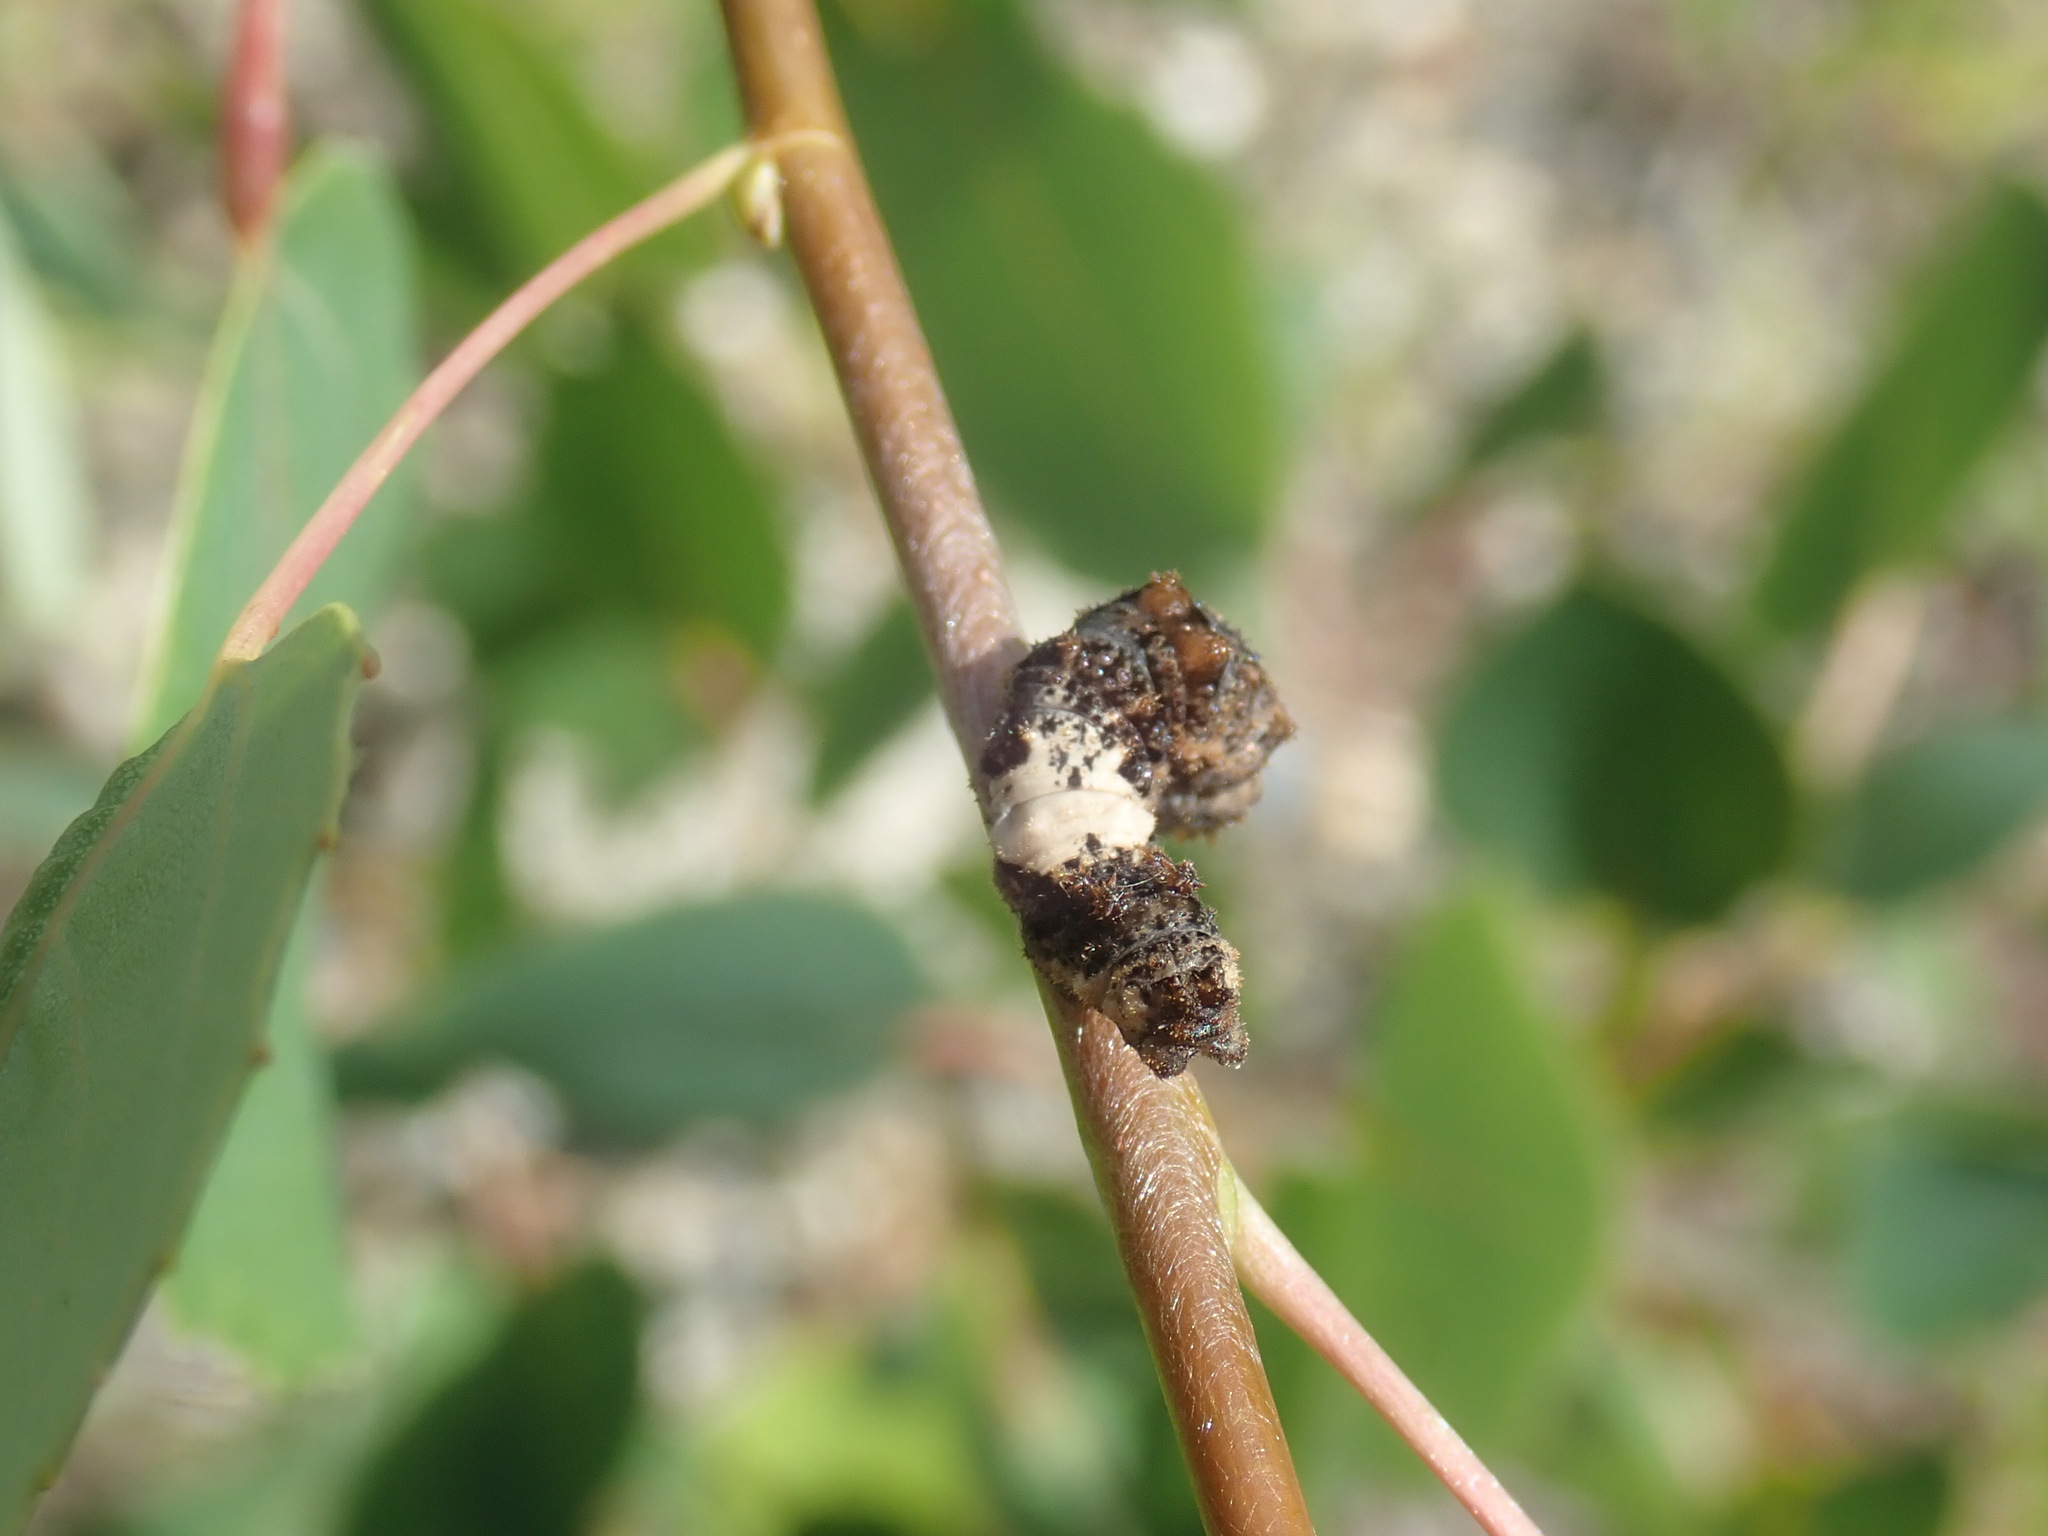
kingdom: Animalia
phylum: Arthropoda
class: Insecta
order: Lepidoptera
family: Nymphalidae
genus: Limenitis
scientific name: Limenitis archippus
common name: Viceroy
